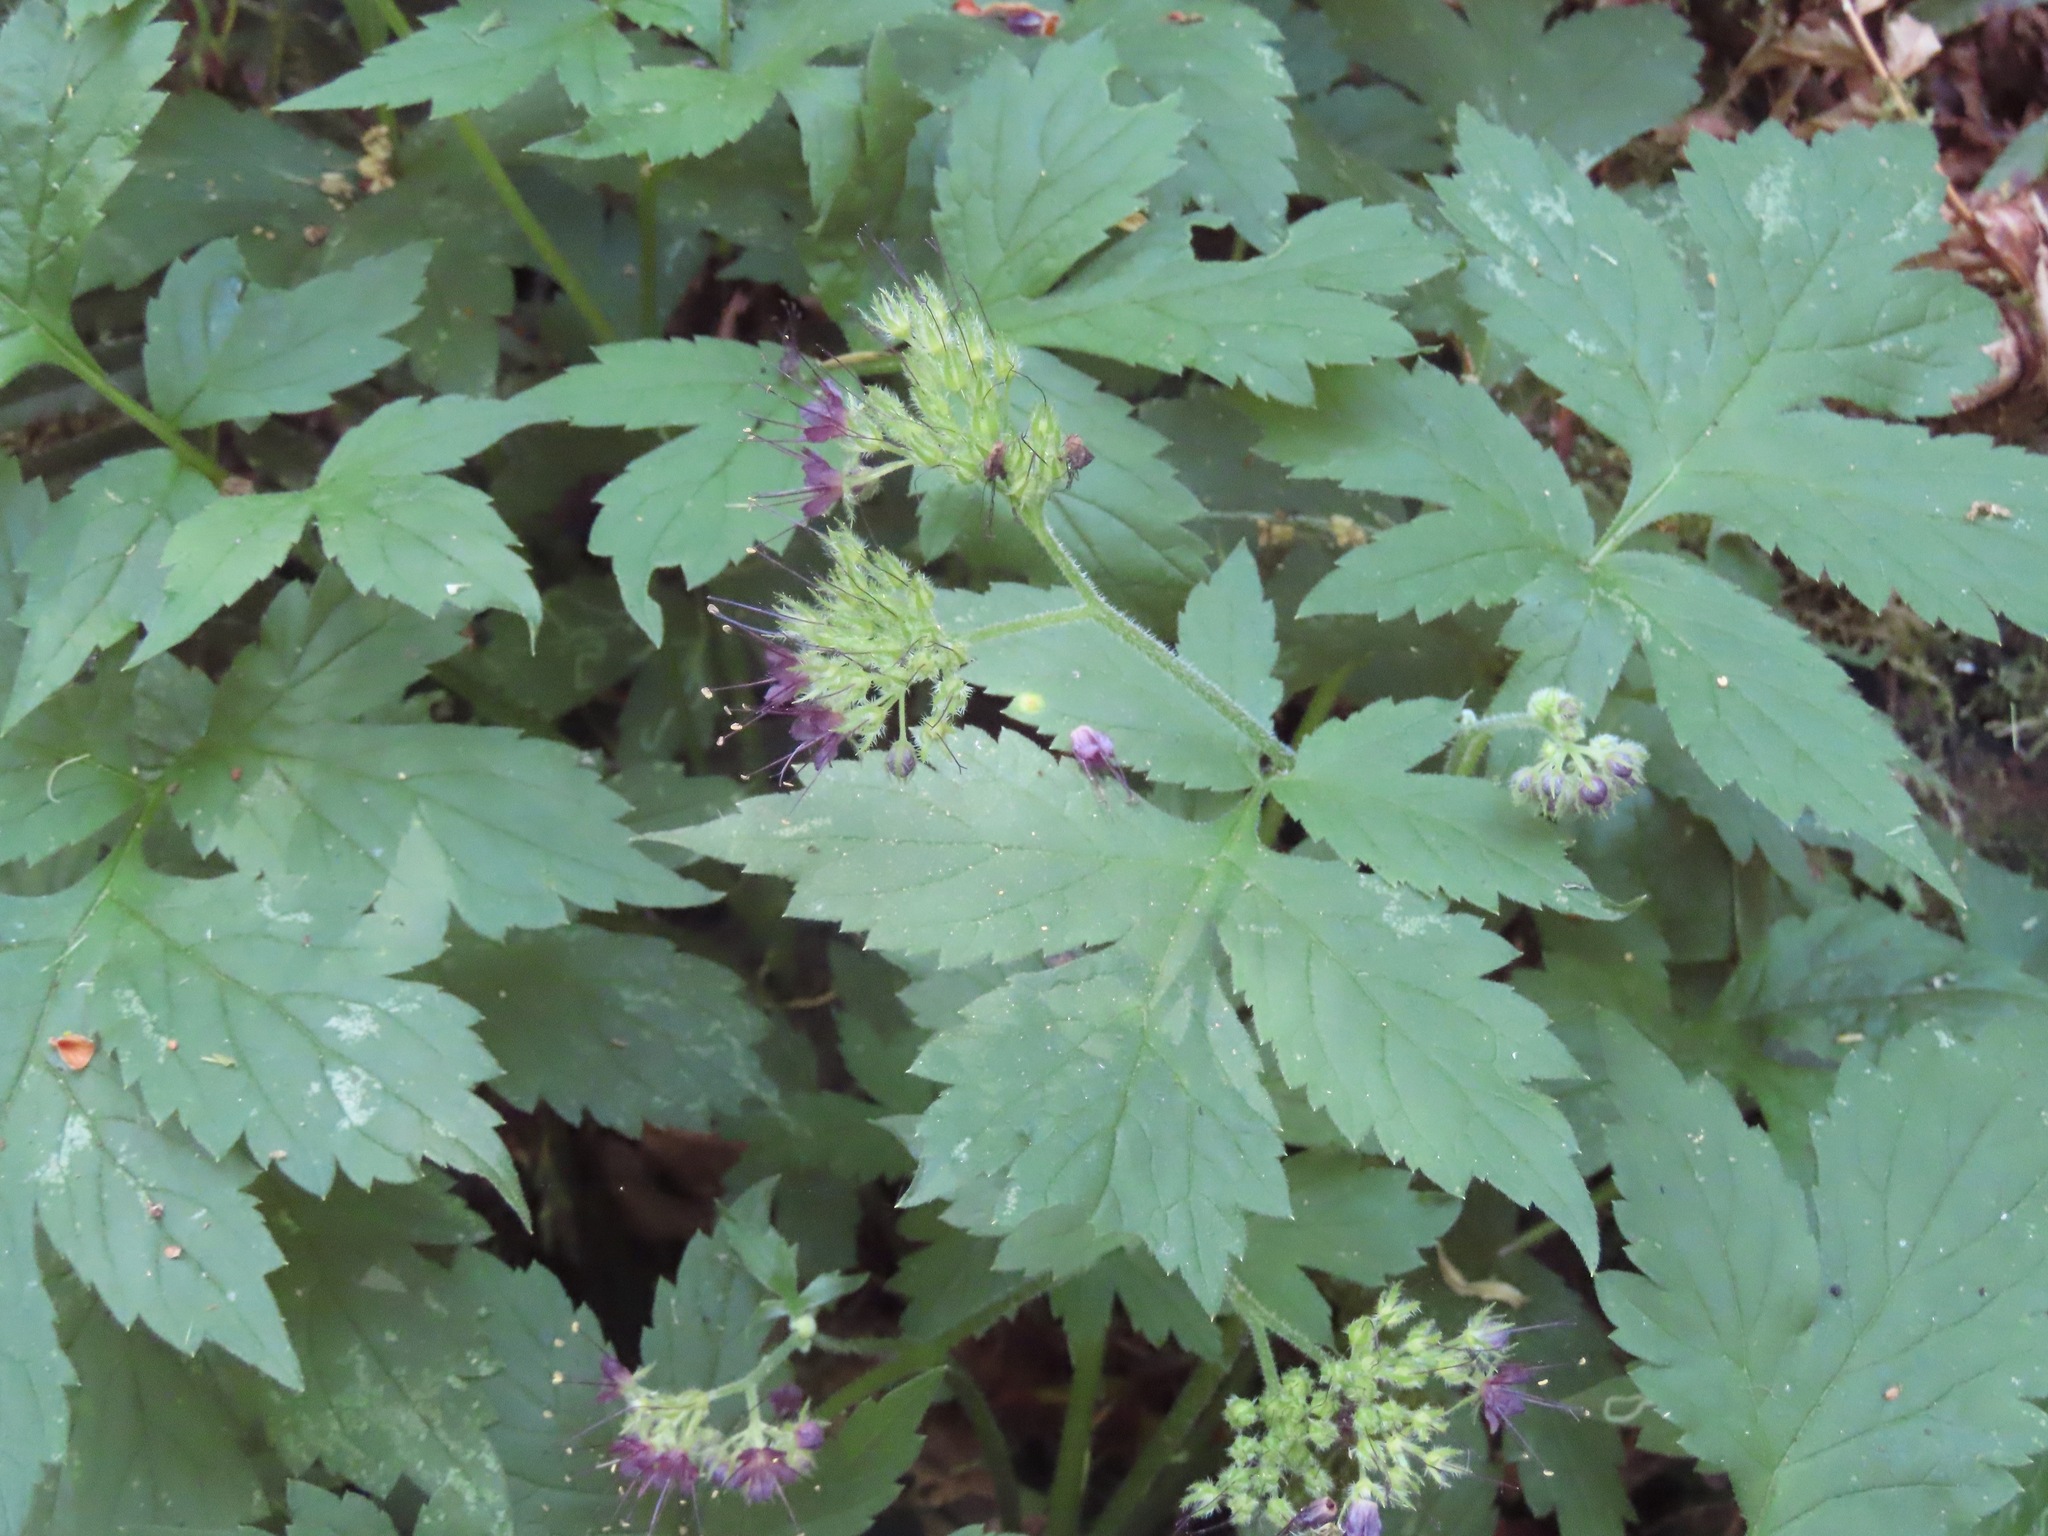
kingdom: Plantae
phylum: Tracheophyta
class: Magnoliopsida
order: Boraginales
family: Hydrophyllaceae
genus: Hydrophyllum
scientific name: Hydrophyllum tenuipes
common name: Pacific waterleaf
